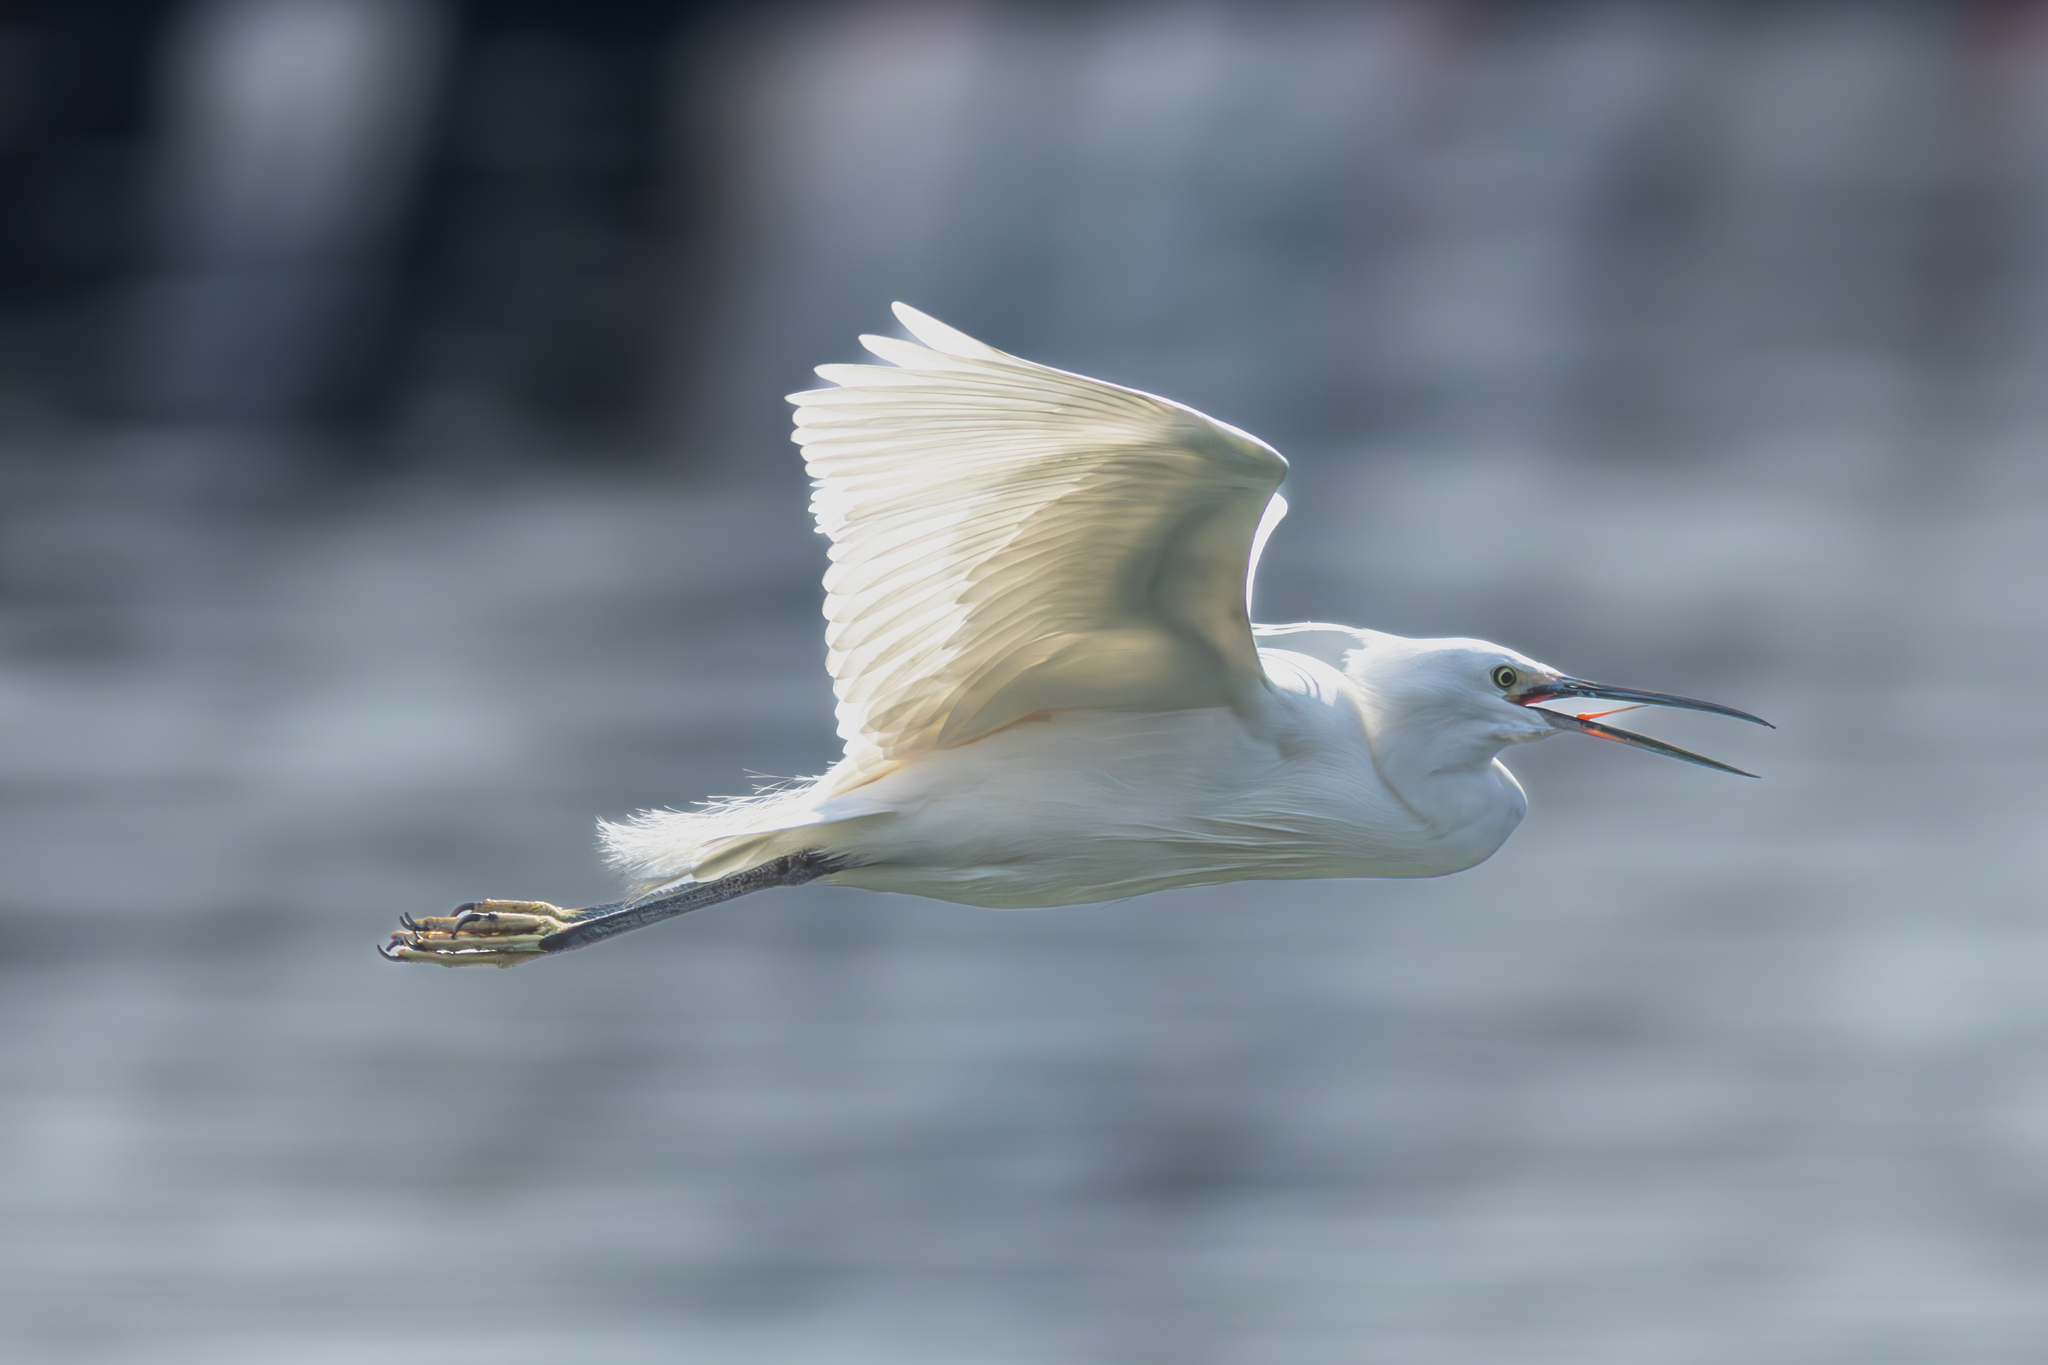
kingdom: Animalia
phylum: Chordata
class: Aves
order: Pelecaniformes
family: Ardeidae
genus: Egretta
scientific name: Egretta garzetta
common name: Little egret
